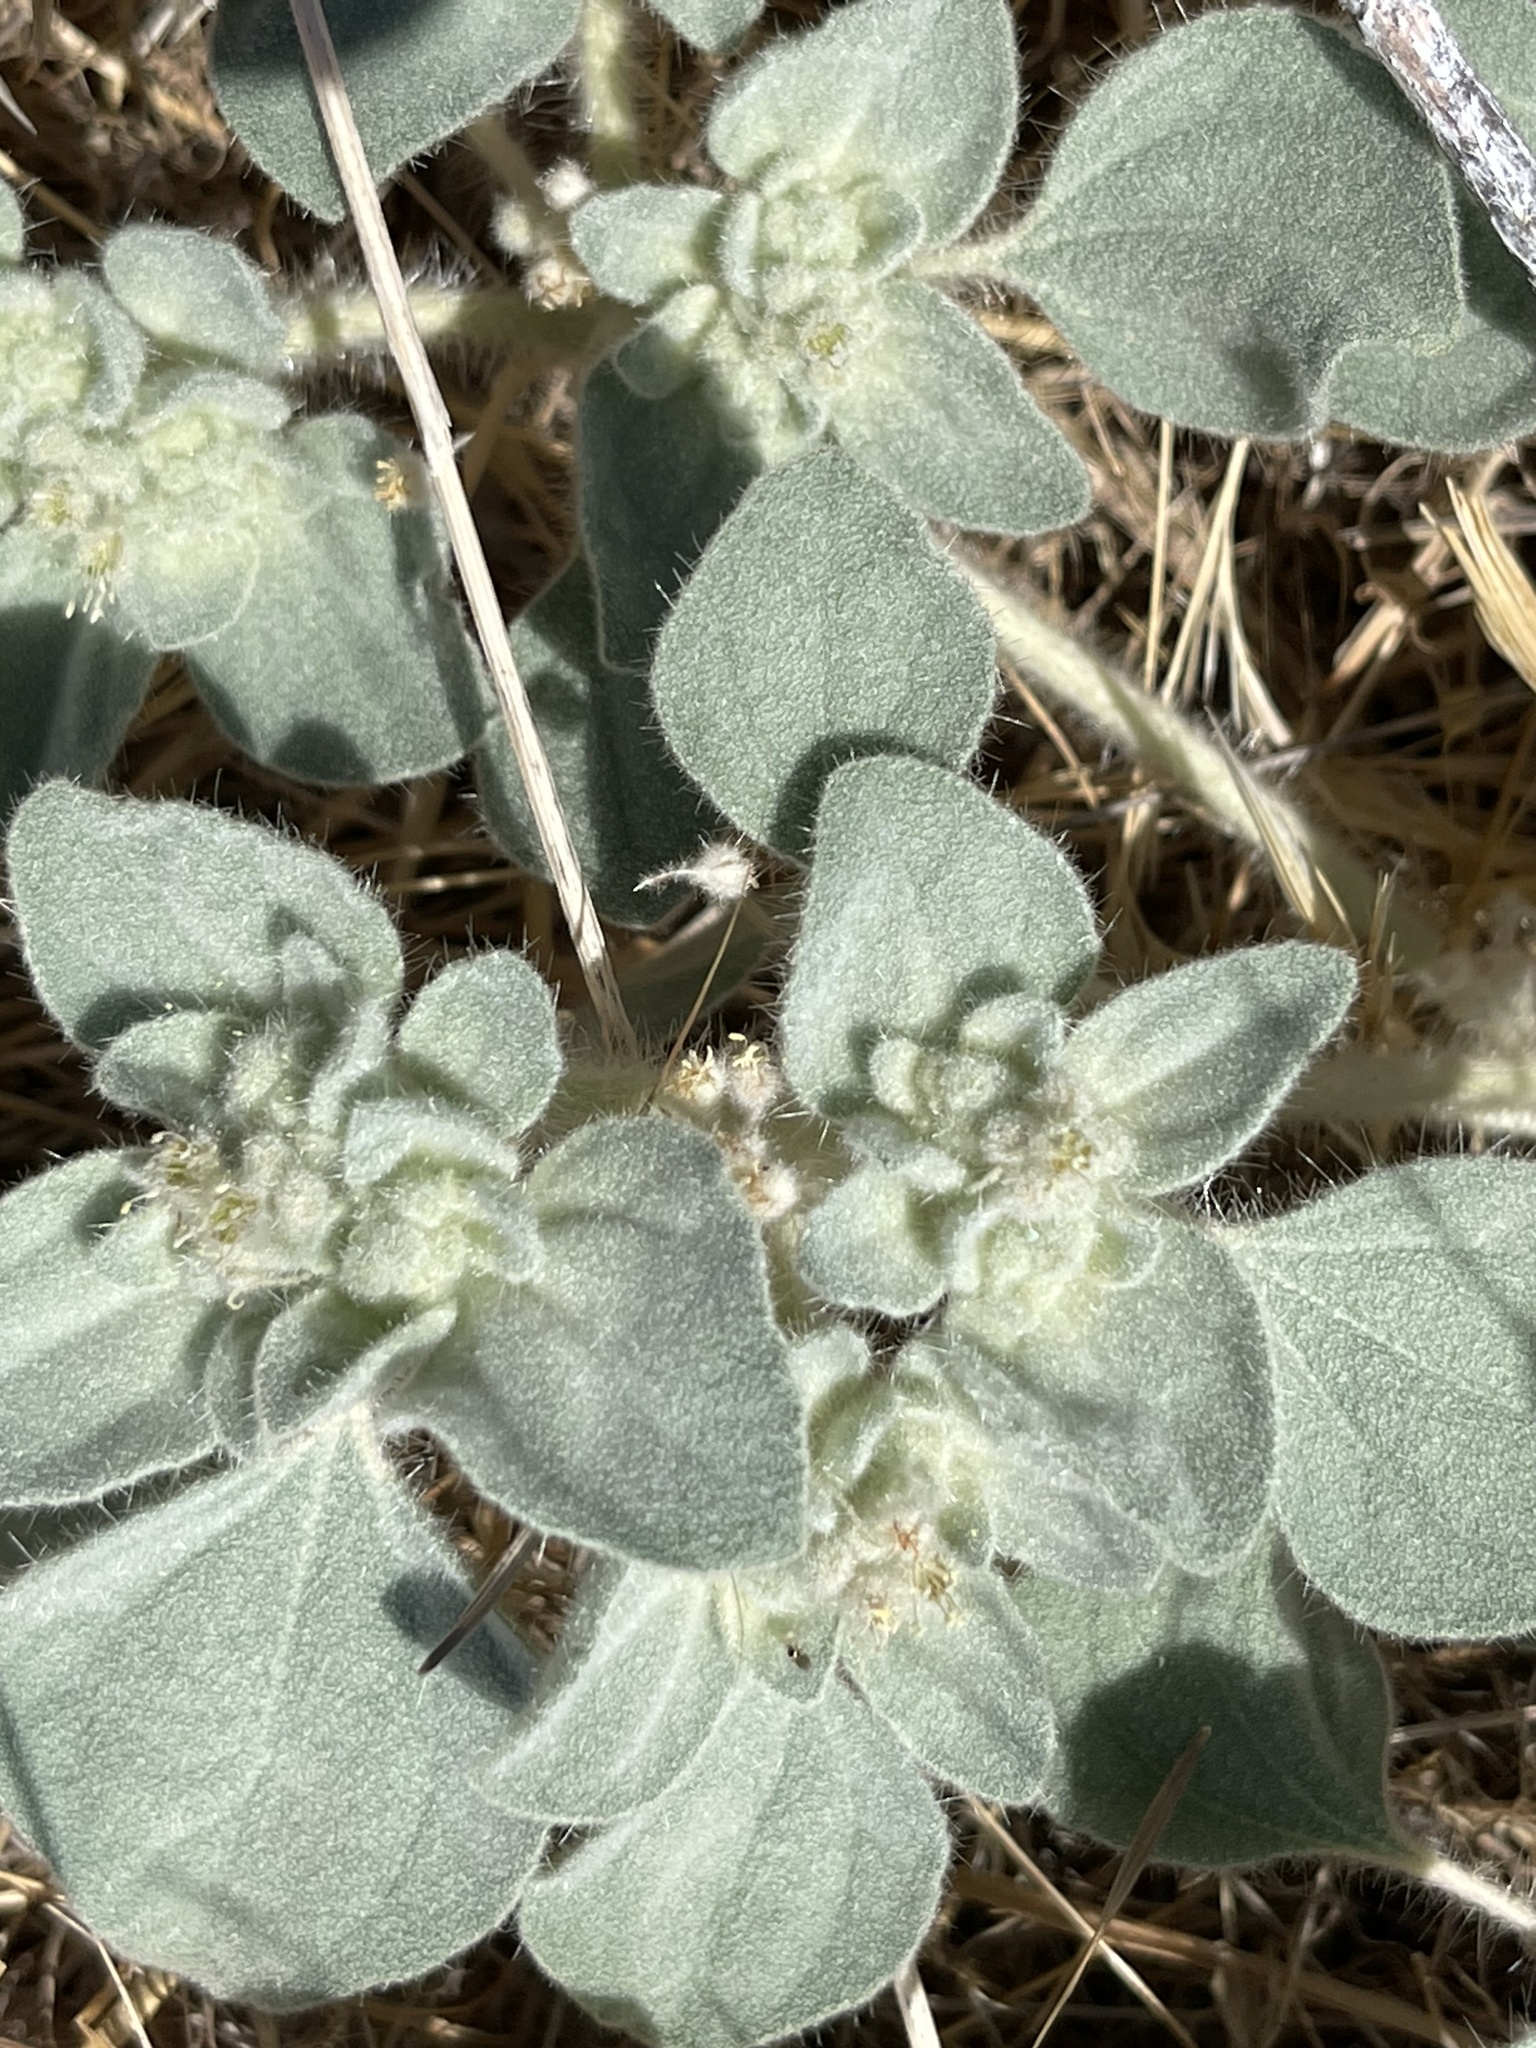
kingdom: Plantae
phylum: Tracheophyta
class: Magnoliopsida
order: Malpighiales
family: Euphorbiaceae
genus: Croton
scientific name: Croton setiger
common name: Dove weed
